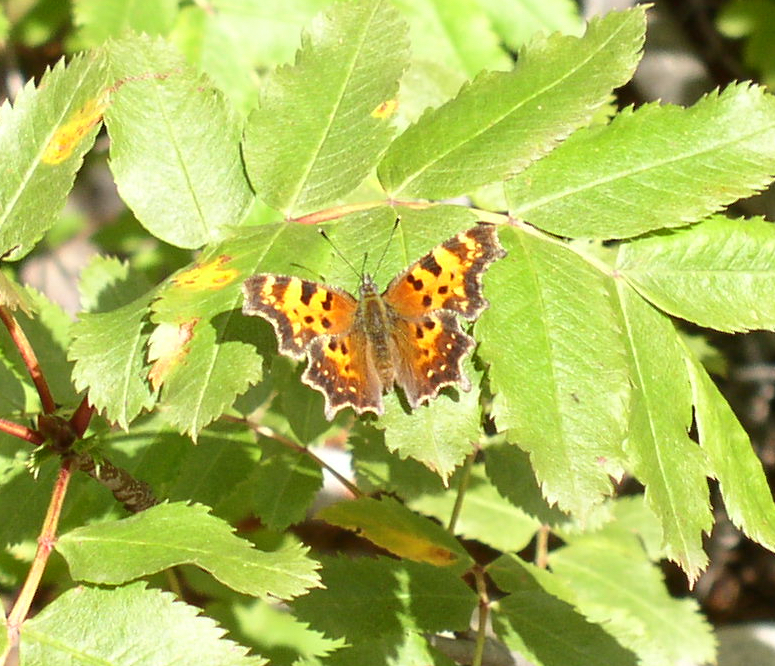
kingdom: Animalia
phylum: Arthropoda
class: Insecta
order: Lepidoptera
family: Nymphalidae
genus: Polygonia
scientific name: Polygonia faunus
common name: Green comma
